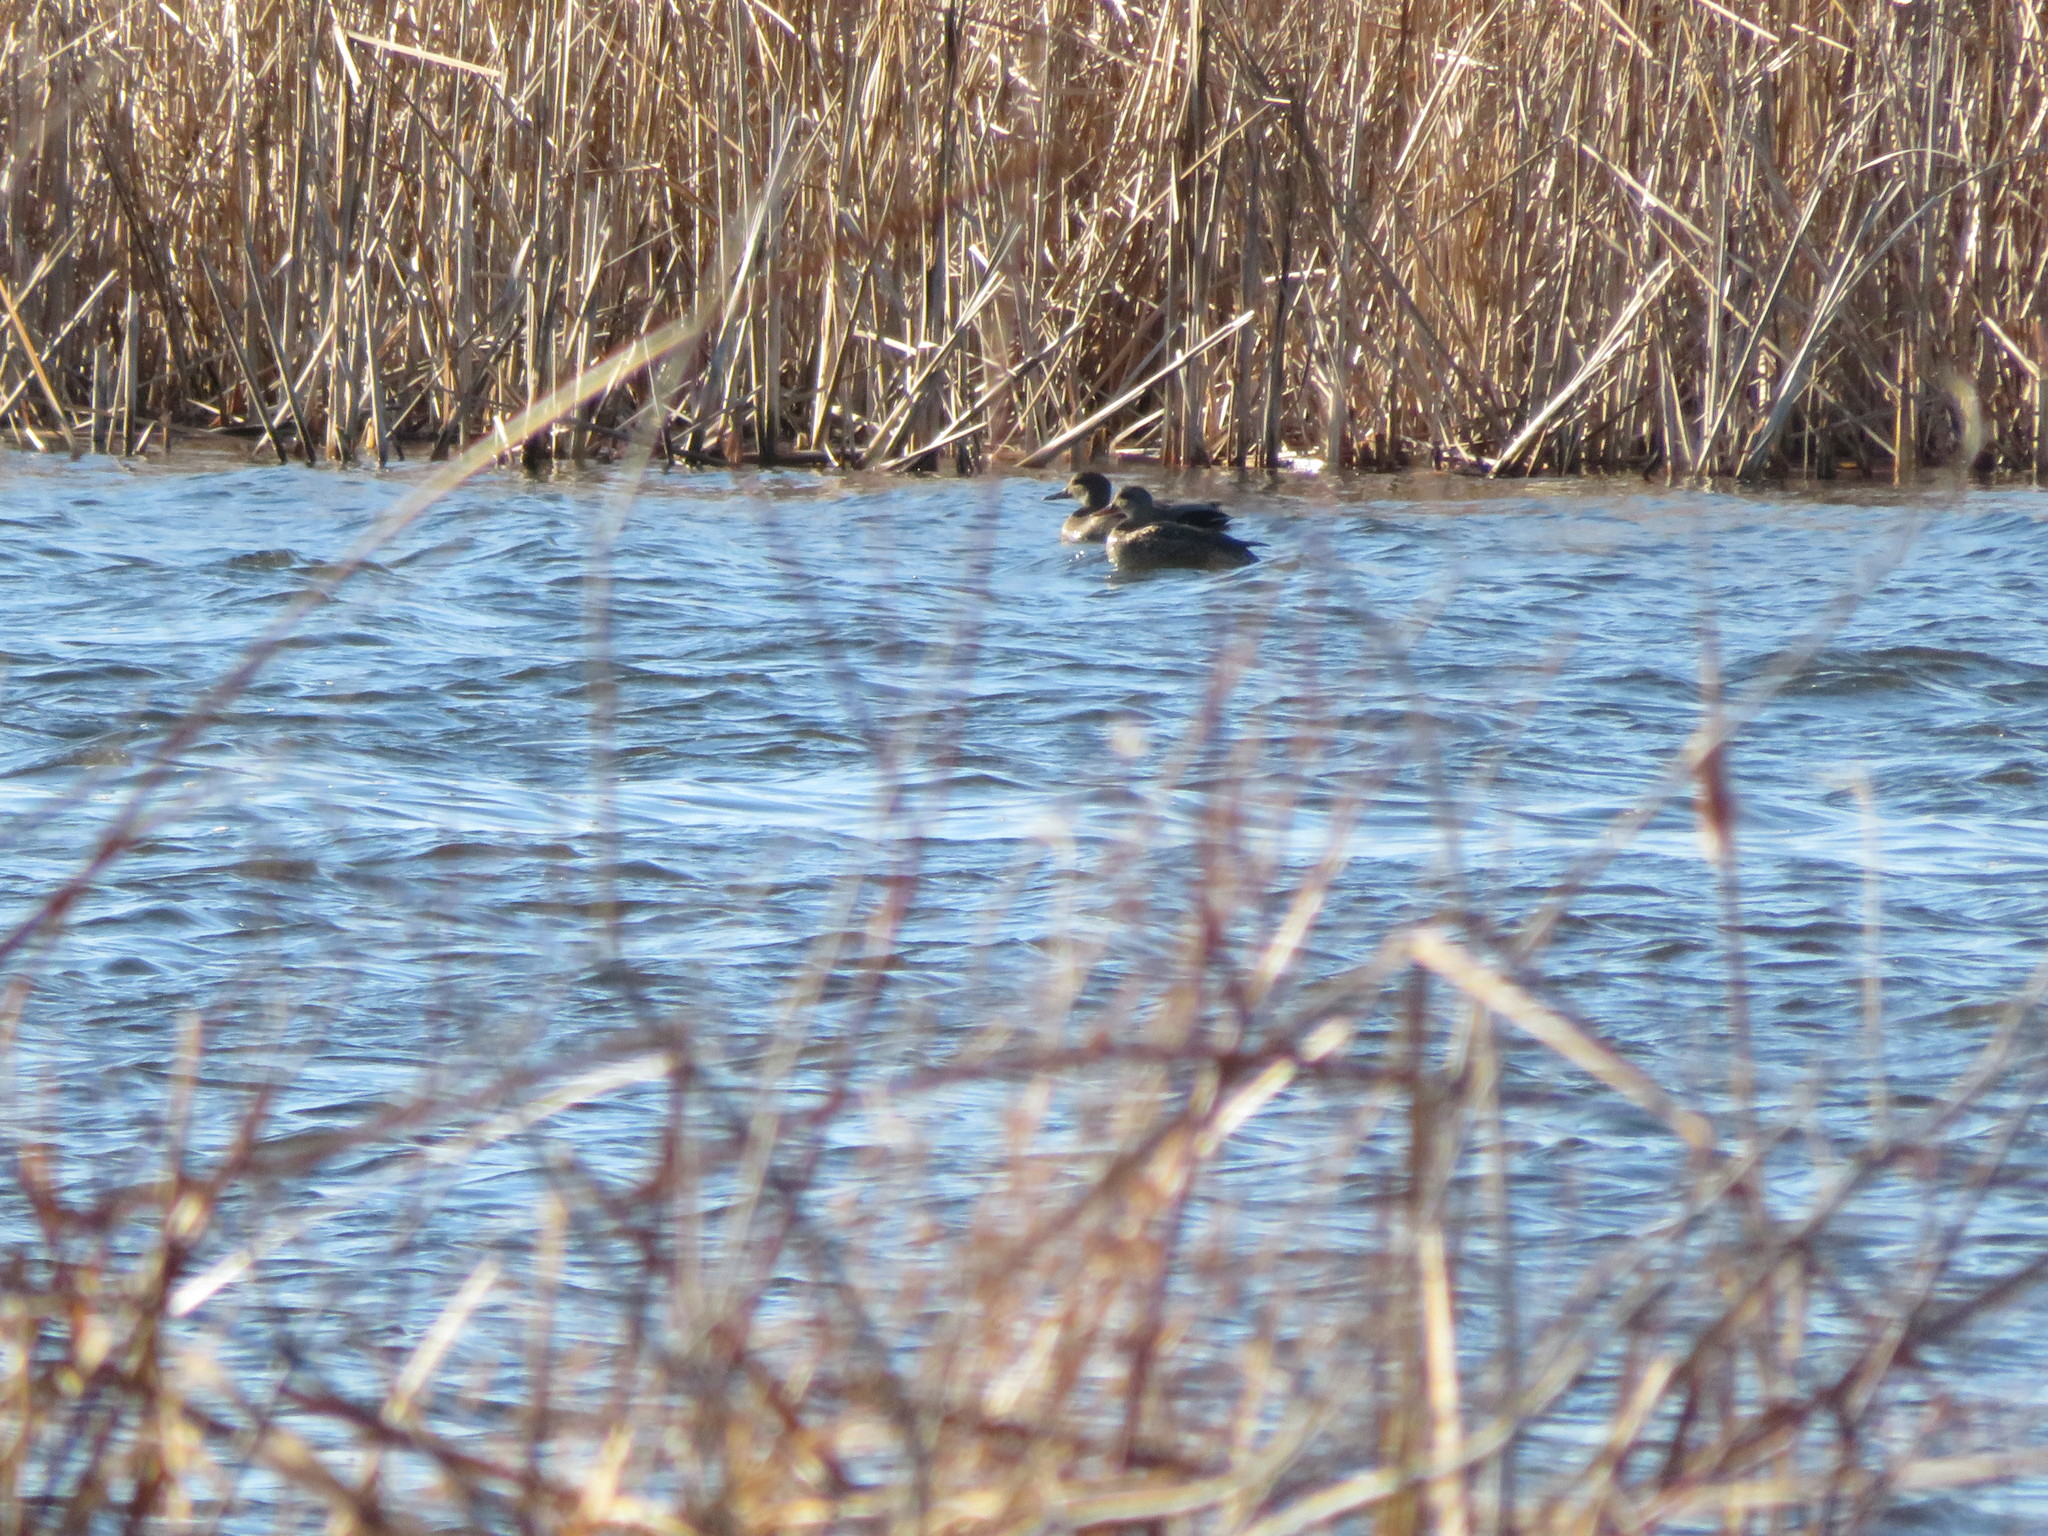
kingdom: Animalia
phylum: Chordata
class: Aves
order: Anseriformes
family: Anatidae
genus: Mareca
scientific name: Mareca strepera
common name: Gadwall
